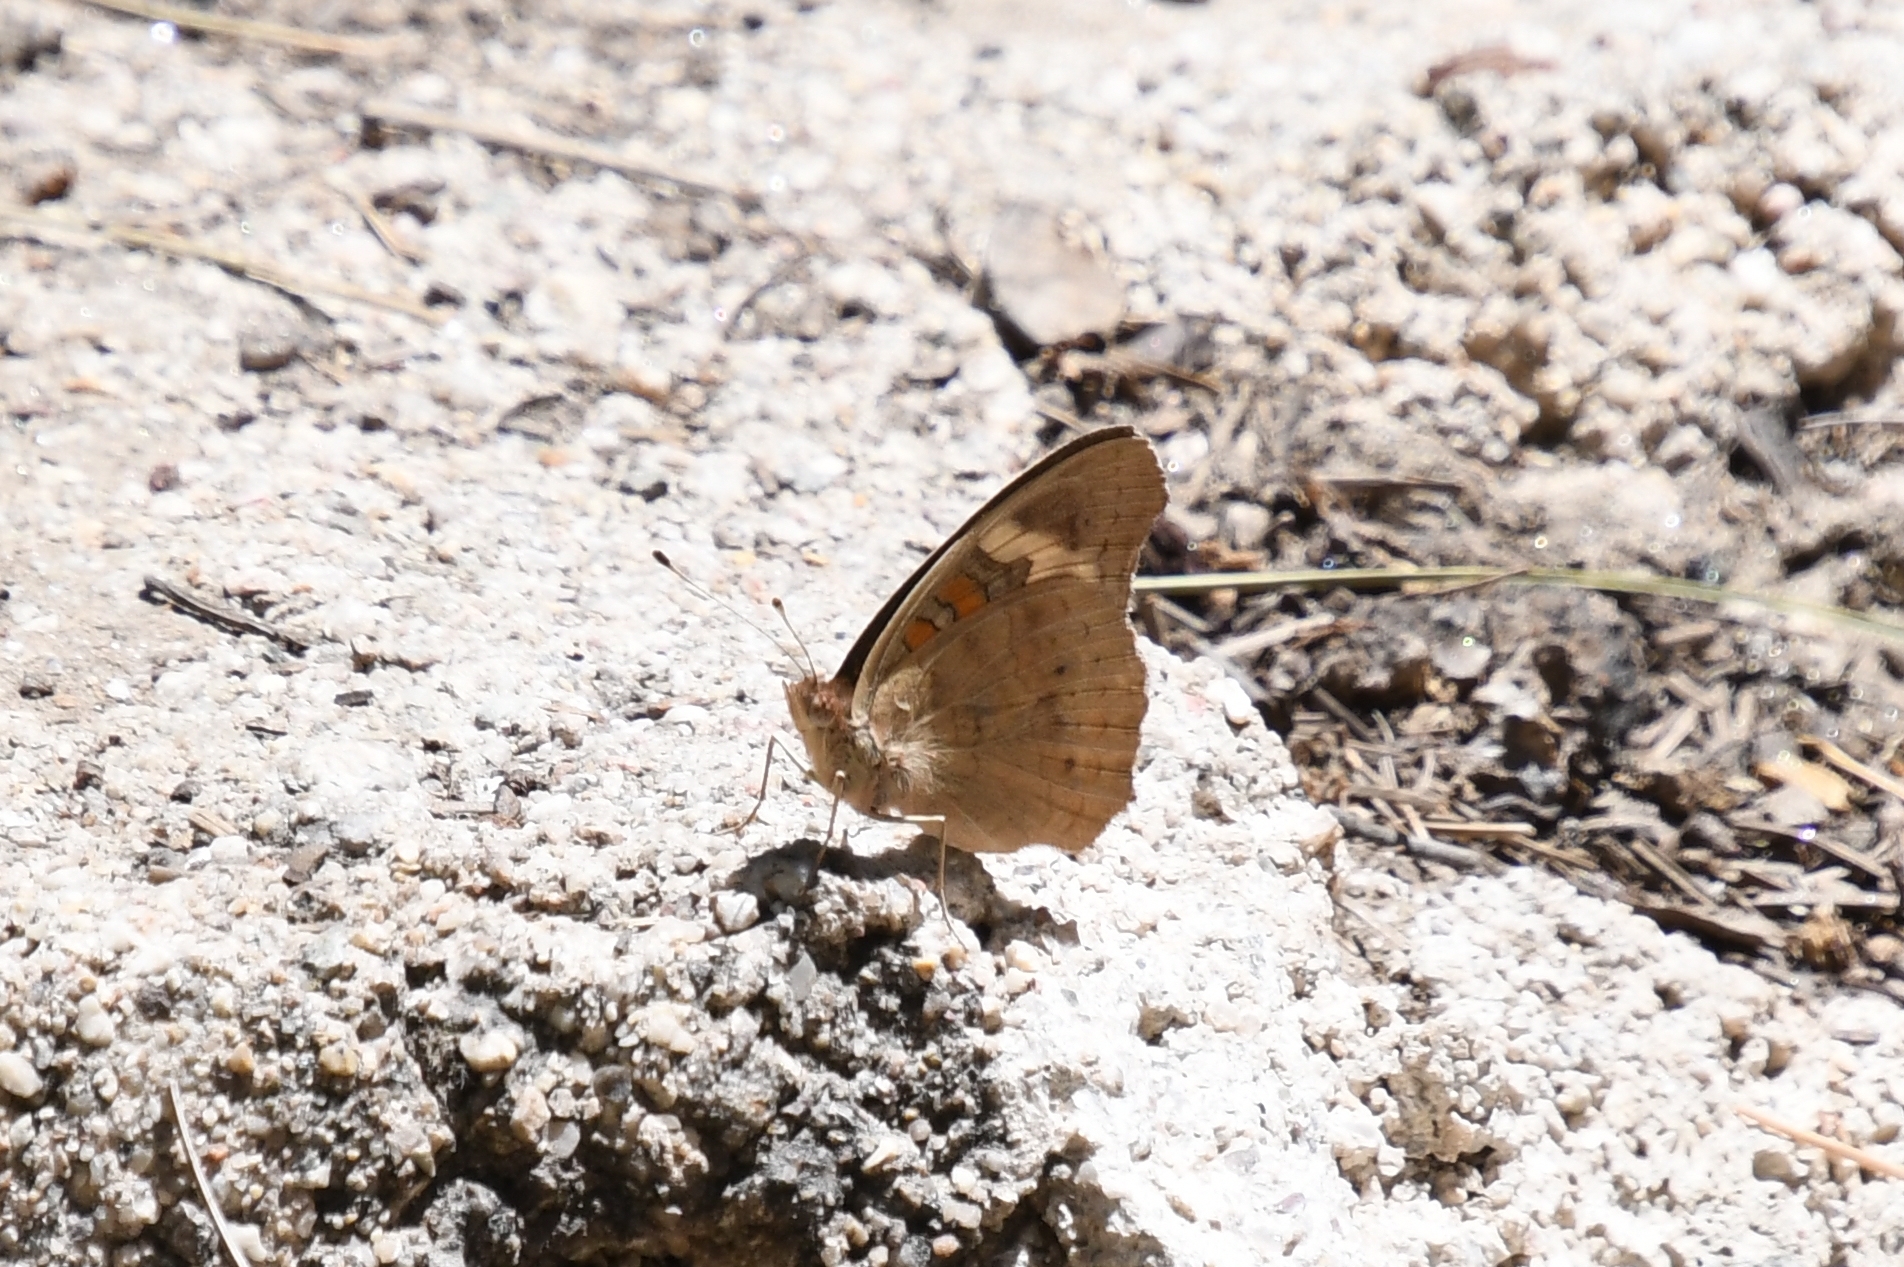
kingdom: Animalia
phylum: Arthropoda
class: Insecta
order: Lepidoptera
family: Nymphalidae
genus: Junonia
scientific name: Junonia grisea
